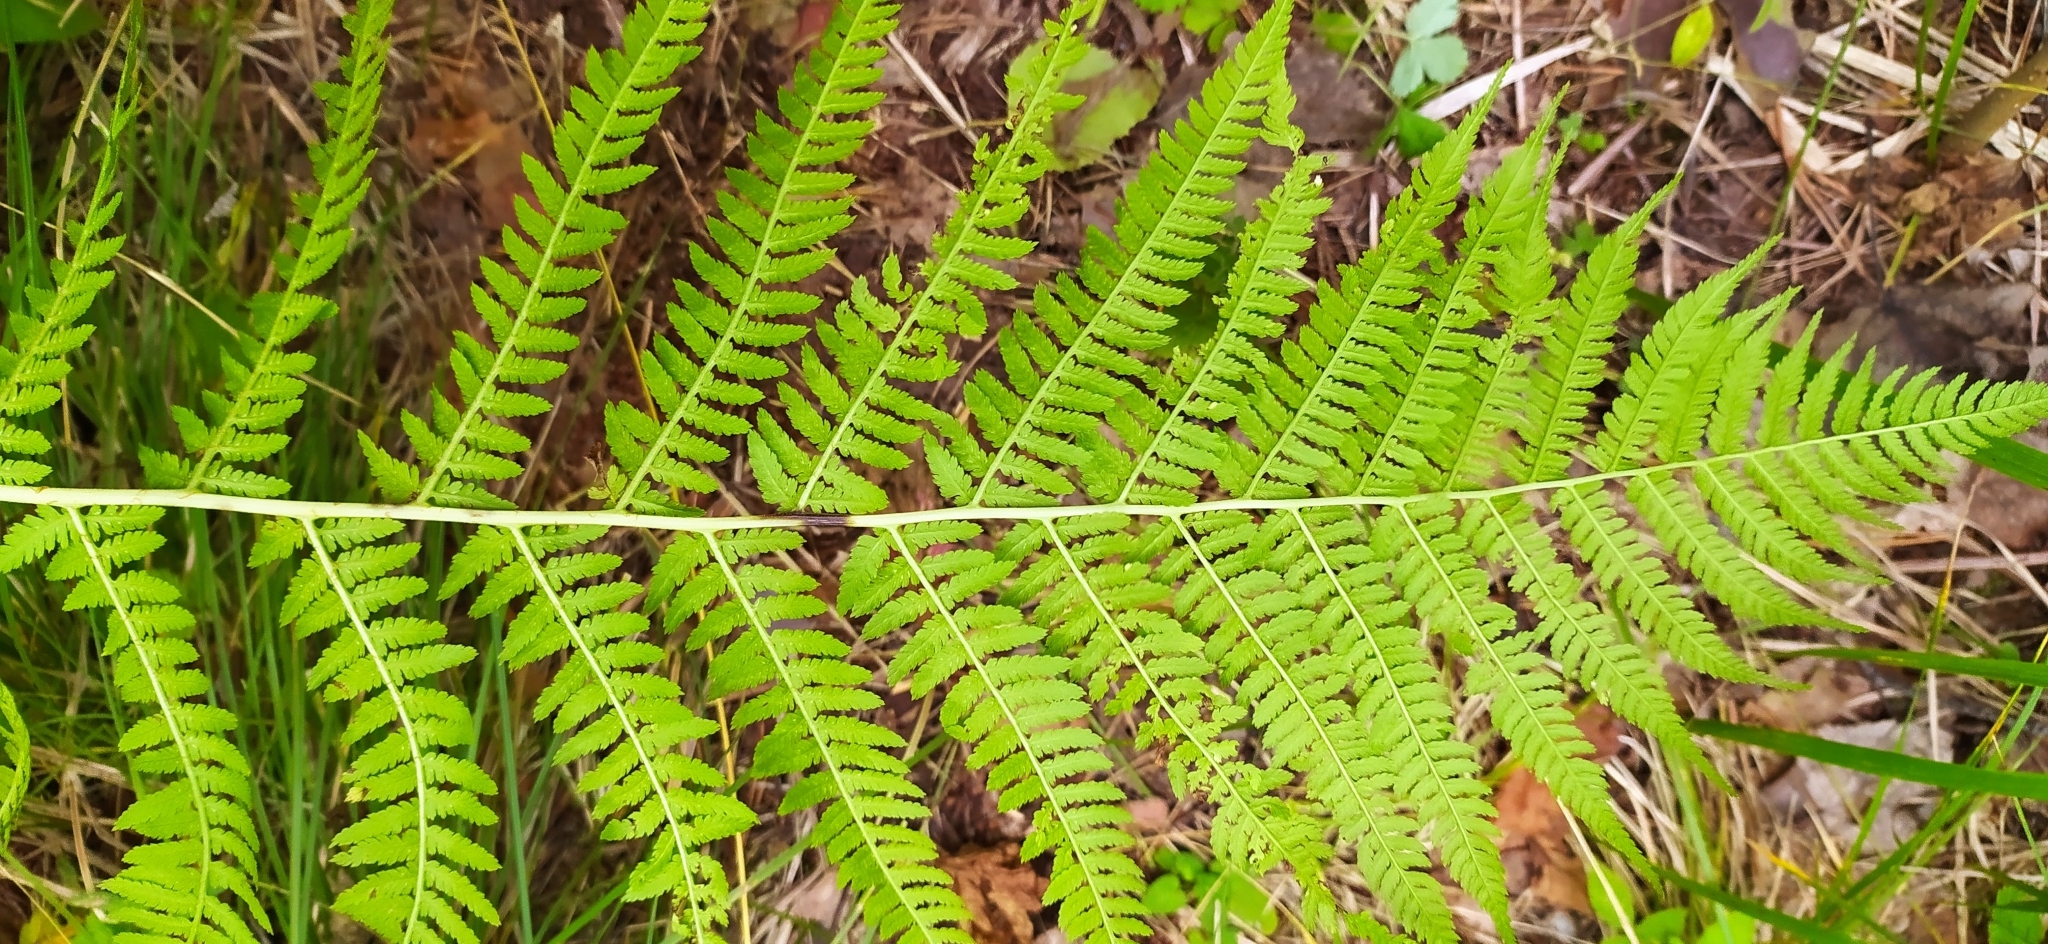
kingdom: Plantae
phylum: Tracheophyta
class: Polypodiopsida
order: Polypodiales
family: Athyriaceae
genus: Athyrium
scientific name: Athyrium filix-femina
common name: Lady fern
